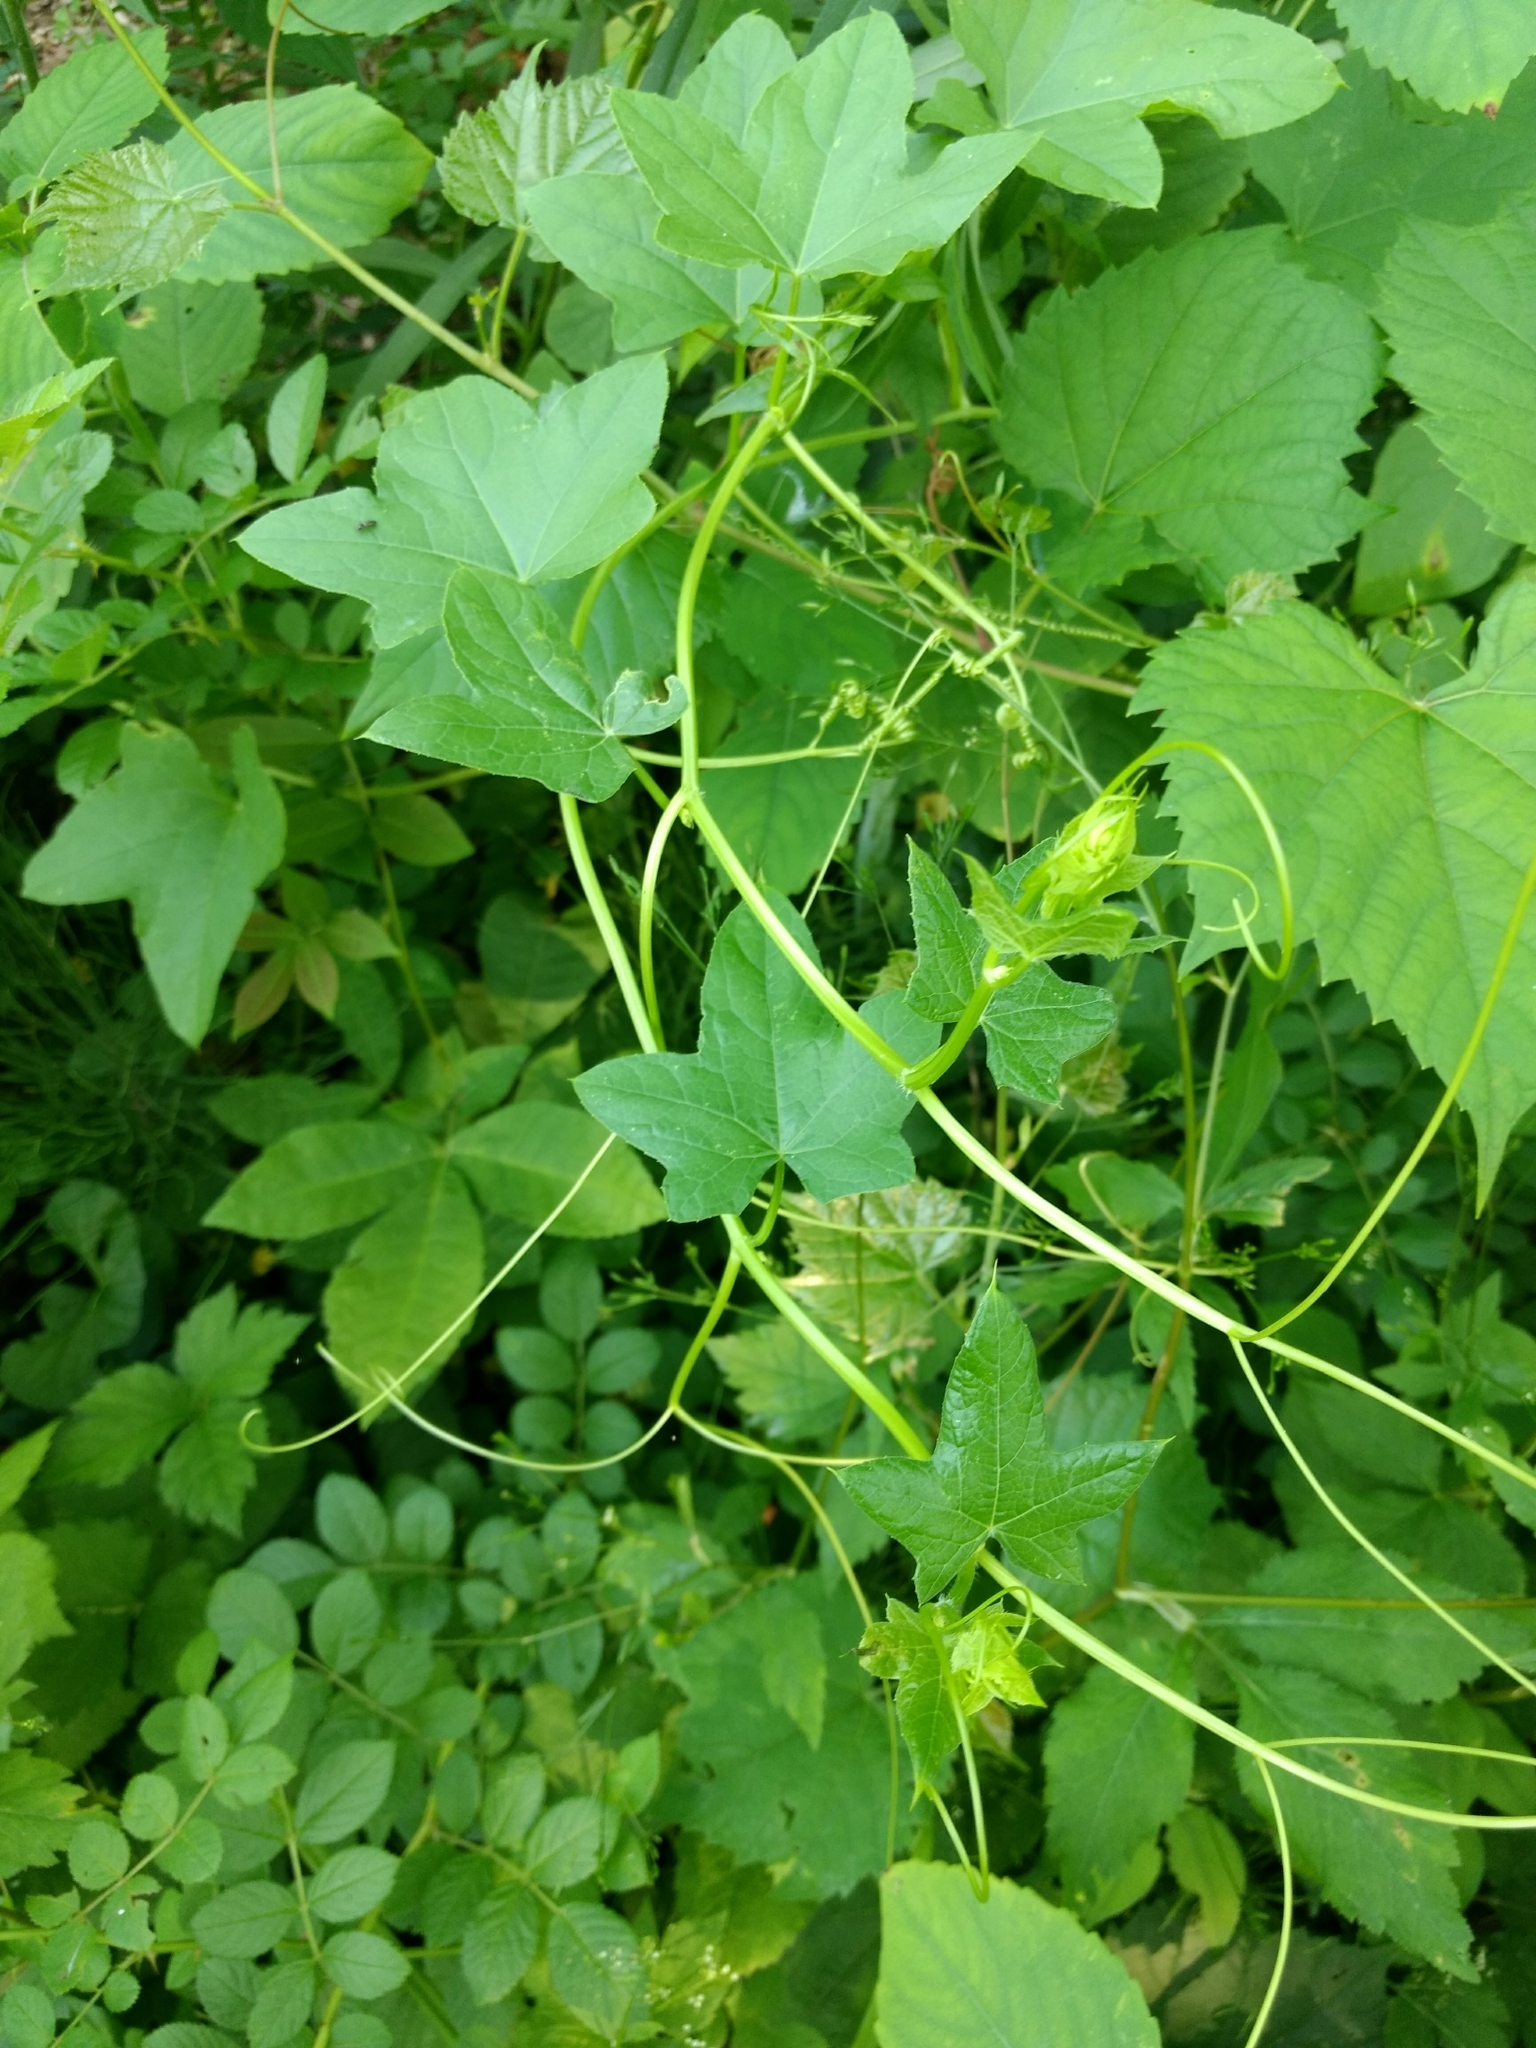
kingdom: Plantae
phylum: Tracheophyta
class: Magnoliopsida
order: Cucurbitales
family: Cucurbitaceae
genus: Echinocystis
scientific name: Echinocystis lobata
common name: Wild cucumber
